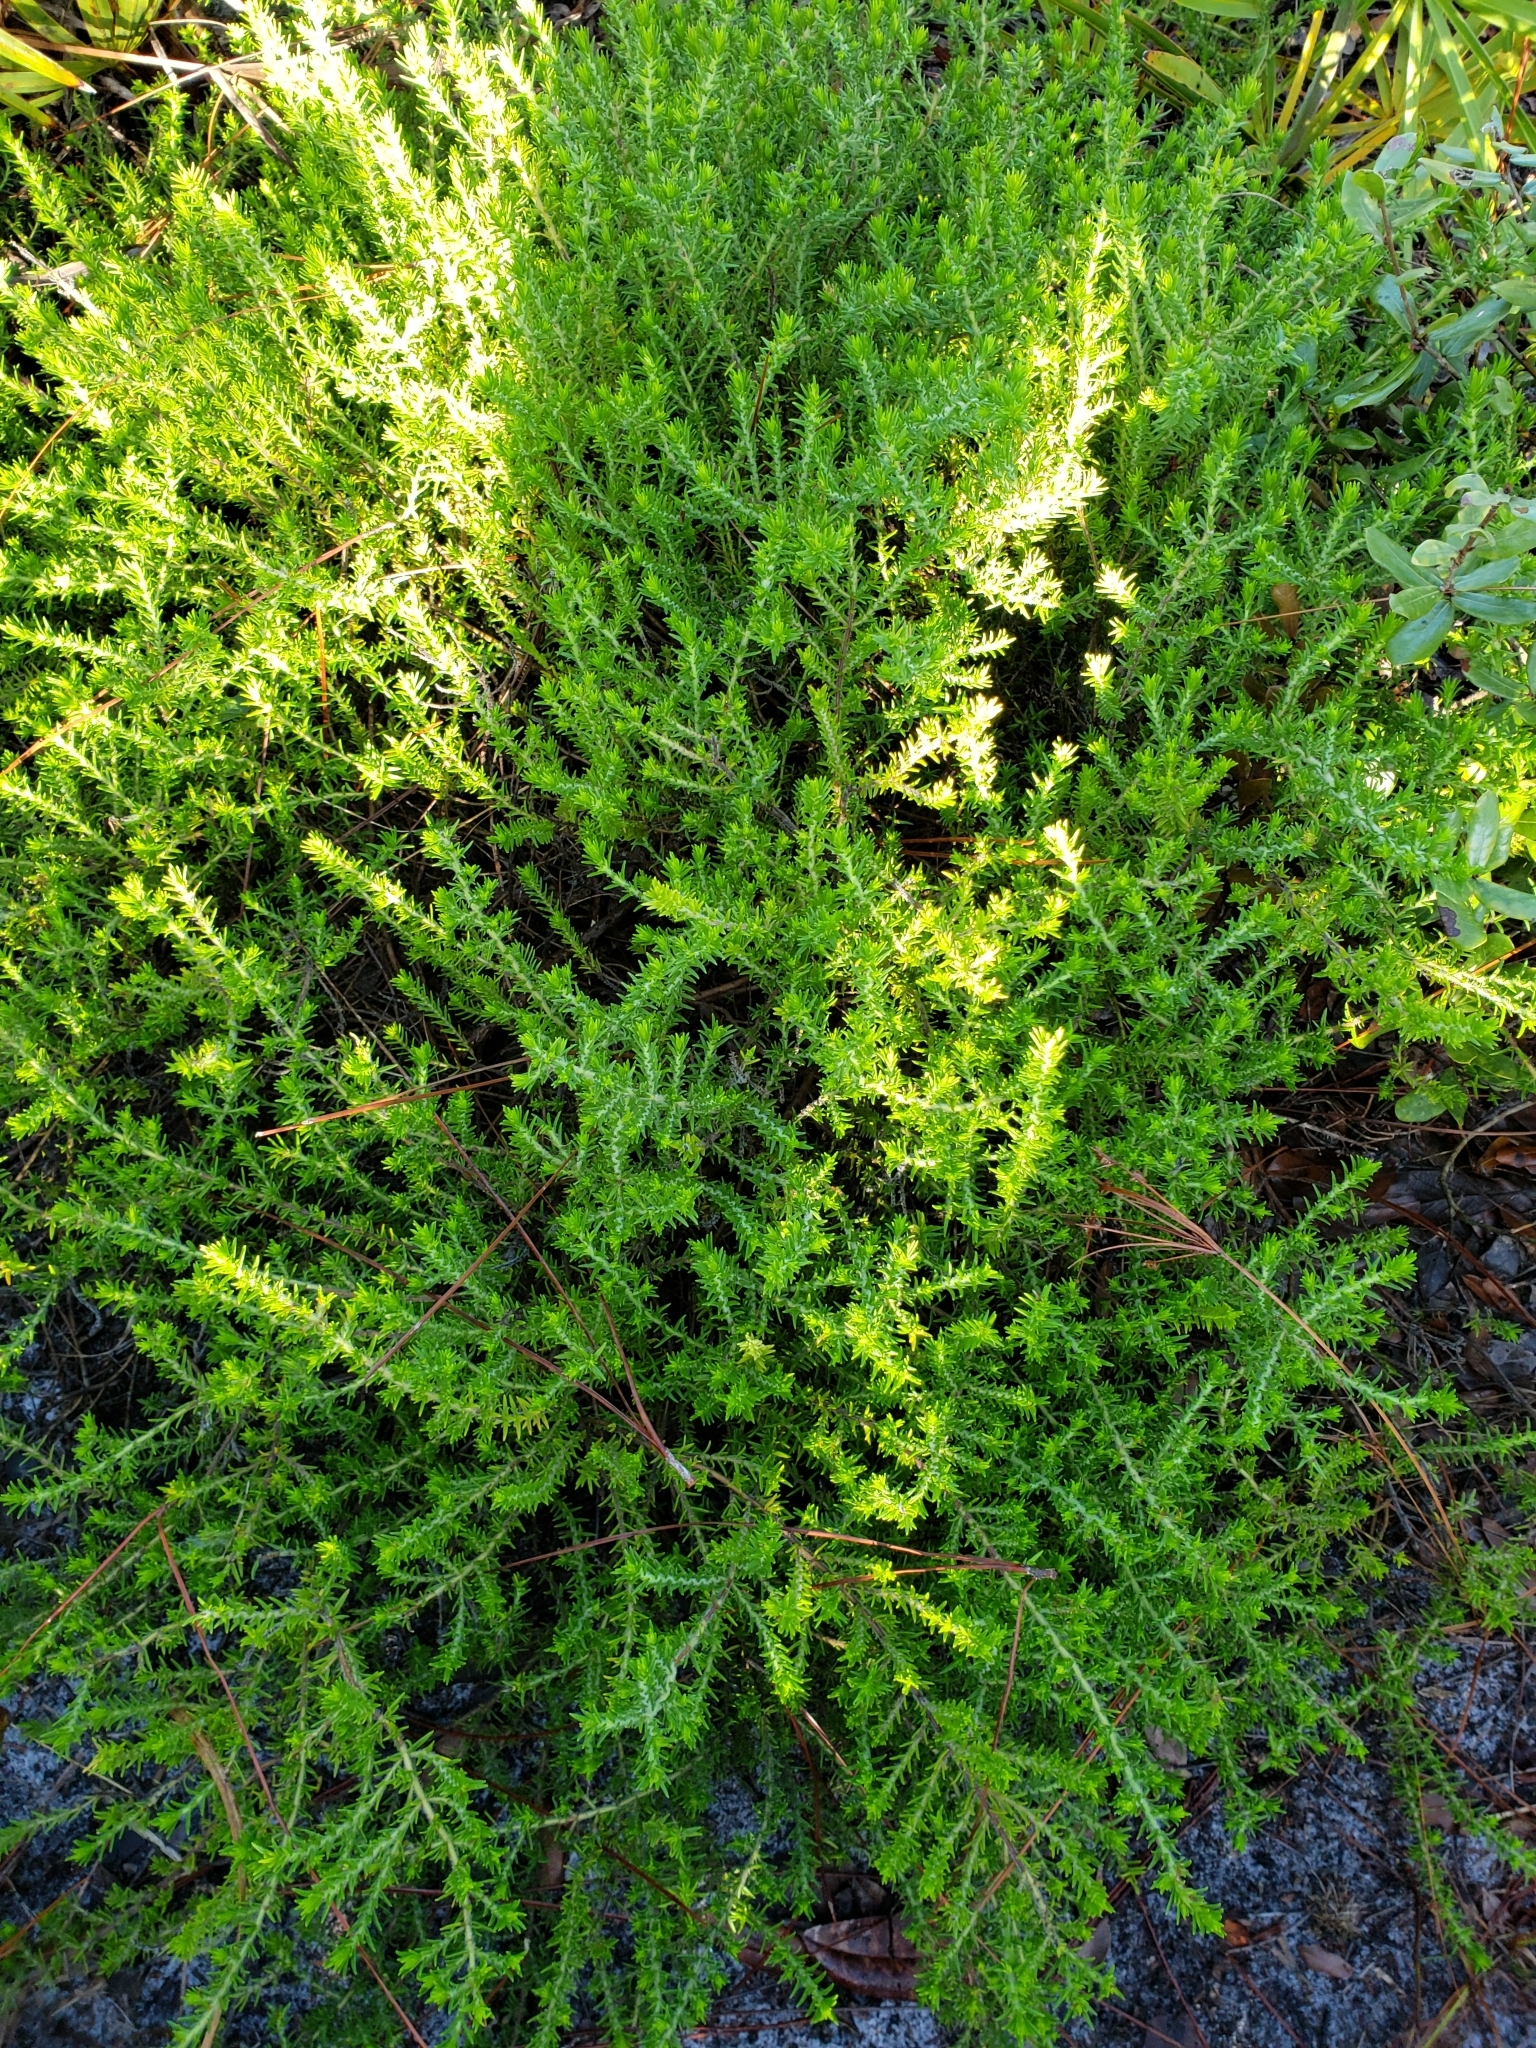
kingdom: Plantae
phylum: Tracheophyta
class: Magnoliopsida
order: Lamiales
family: Lamiaceae
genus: Piloblephis
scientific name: Piloblephis rigida
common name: Wild pennyroyal
